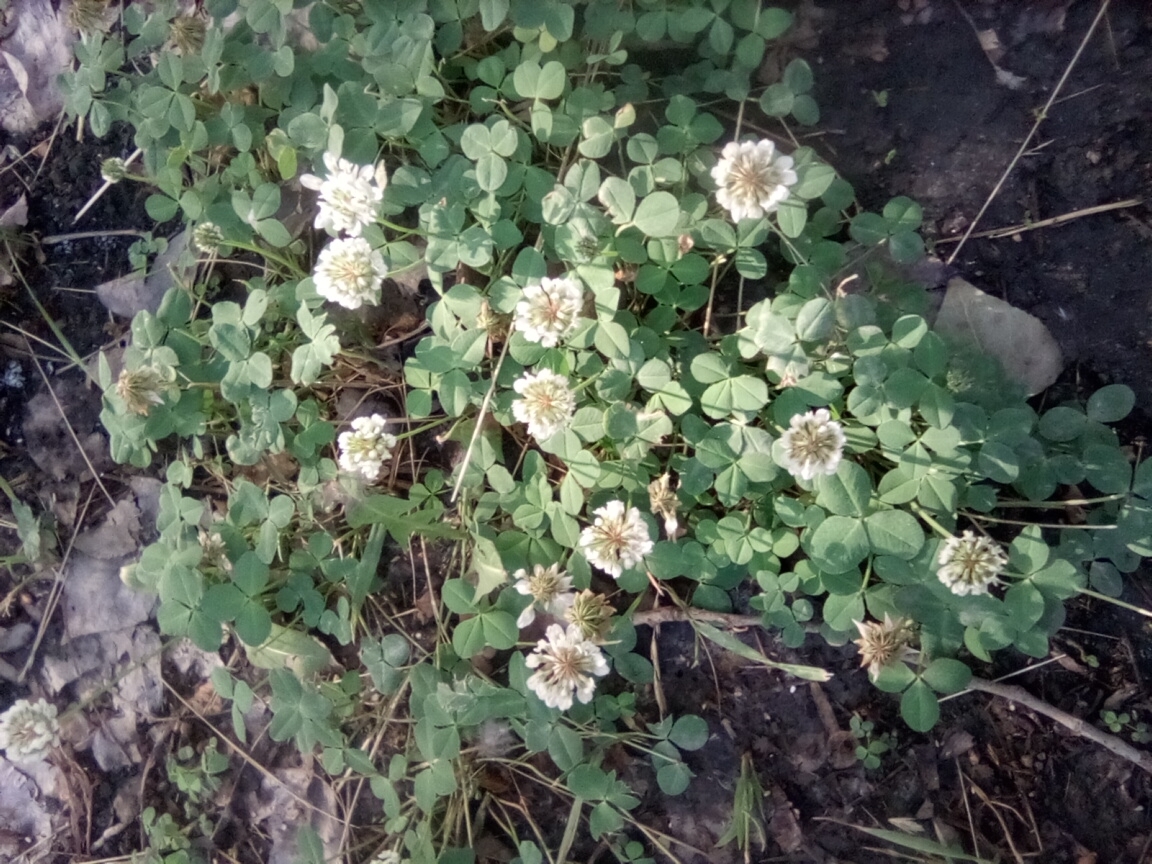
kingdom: Plantae
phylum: Tracheophyta
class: Magnoliopsida
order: Fabales
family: Fabaceae
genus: Trifolium
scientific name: Trifolium repens
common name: White clover
